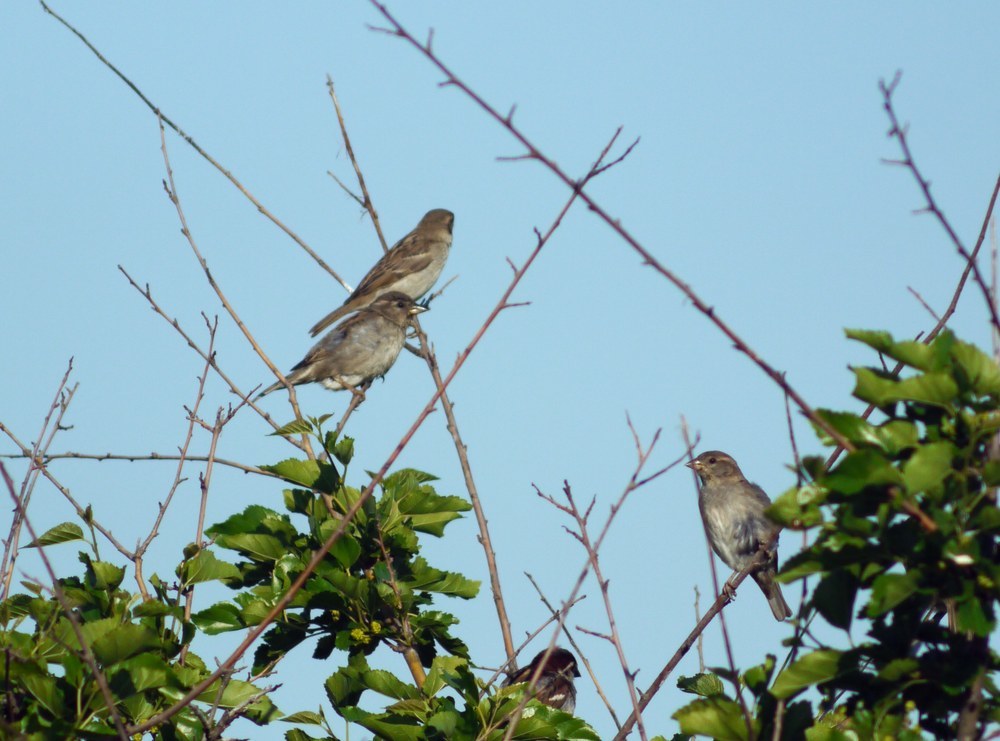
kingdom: Animalia
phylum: Chordata
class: Aves
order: Passeriformes
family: Passeridae
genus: Passer
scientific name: Passer domesticus
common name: House sparrow
